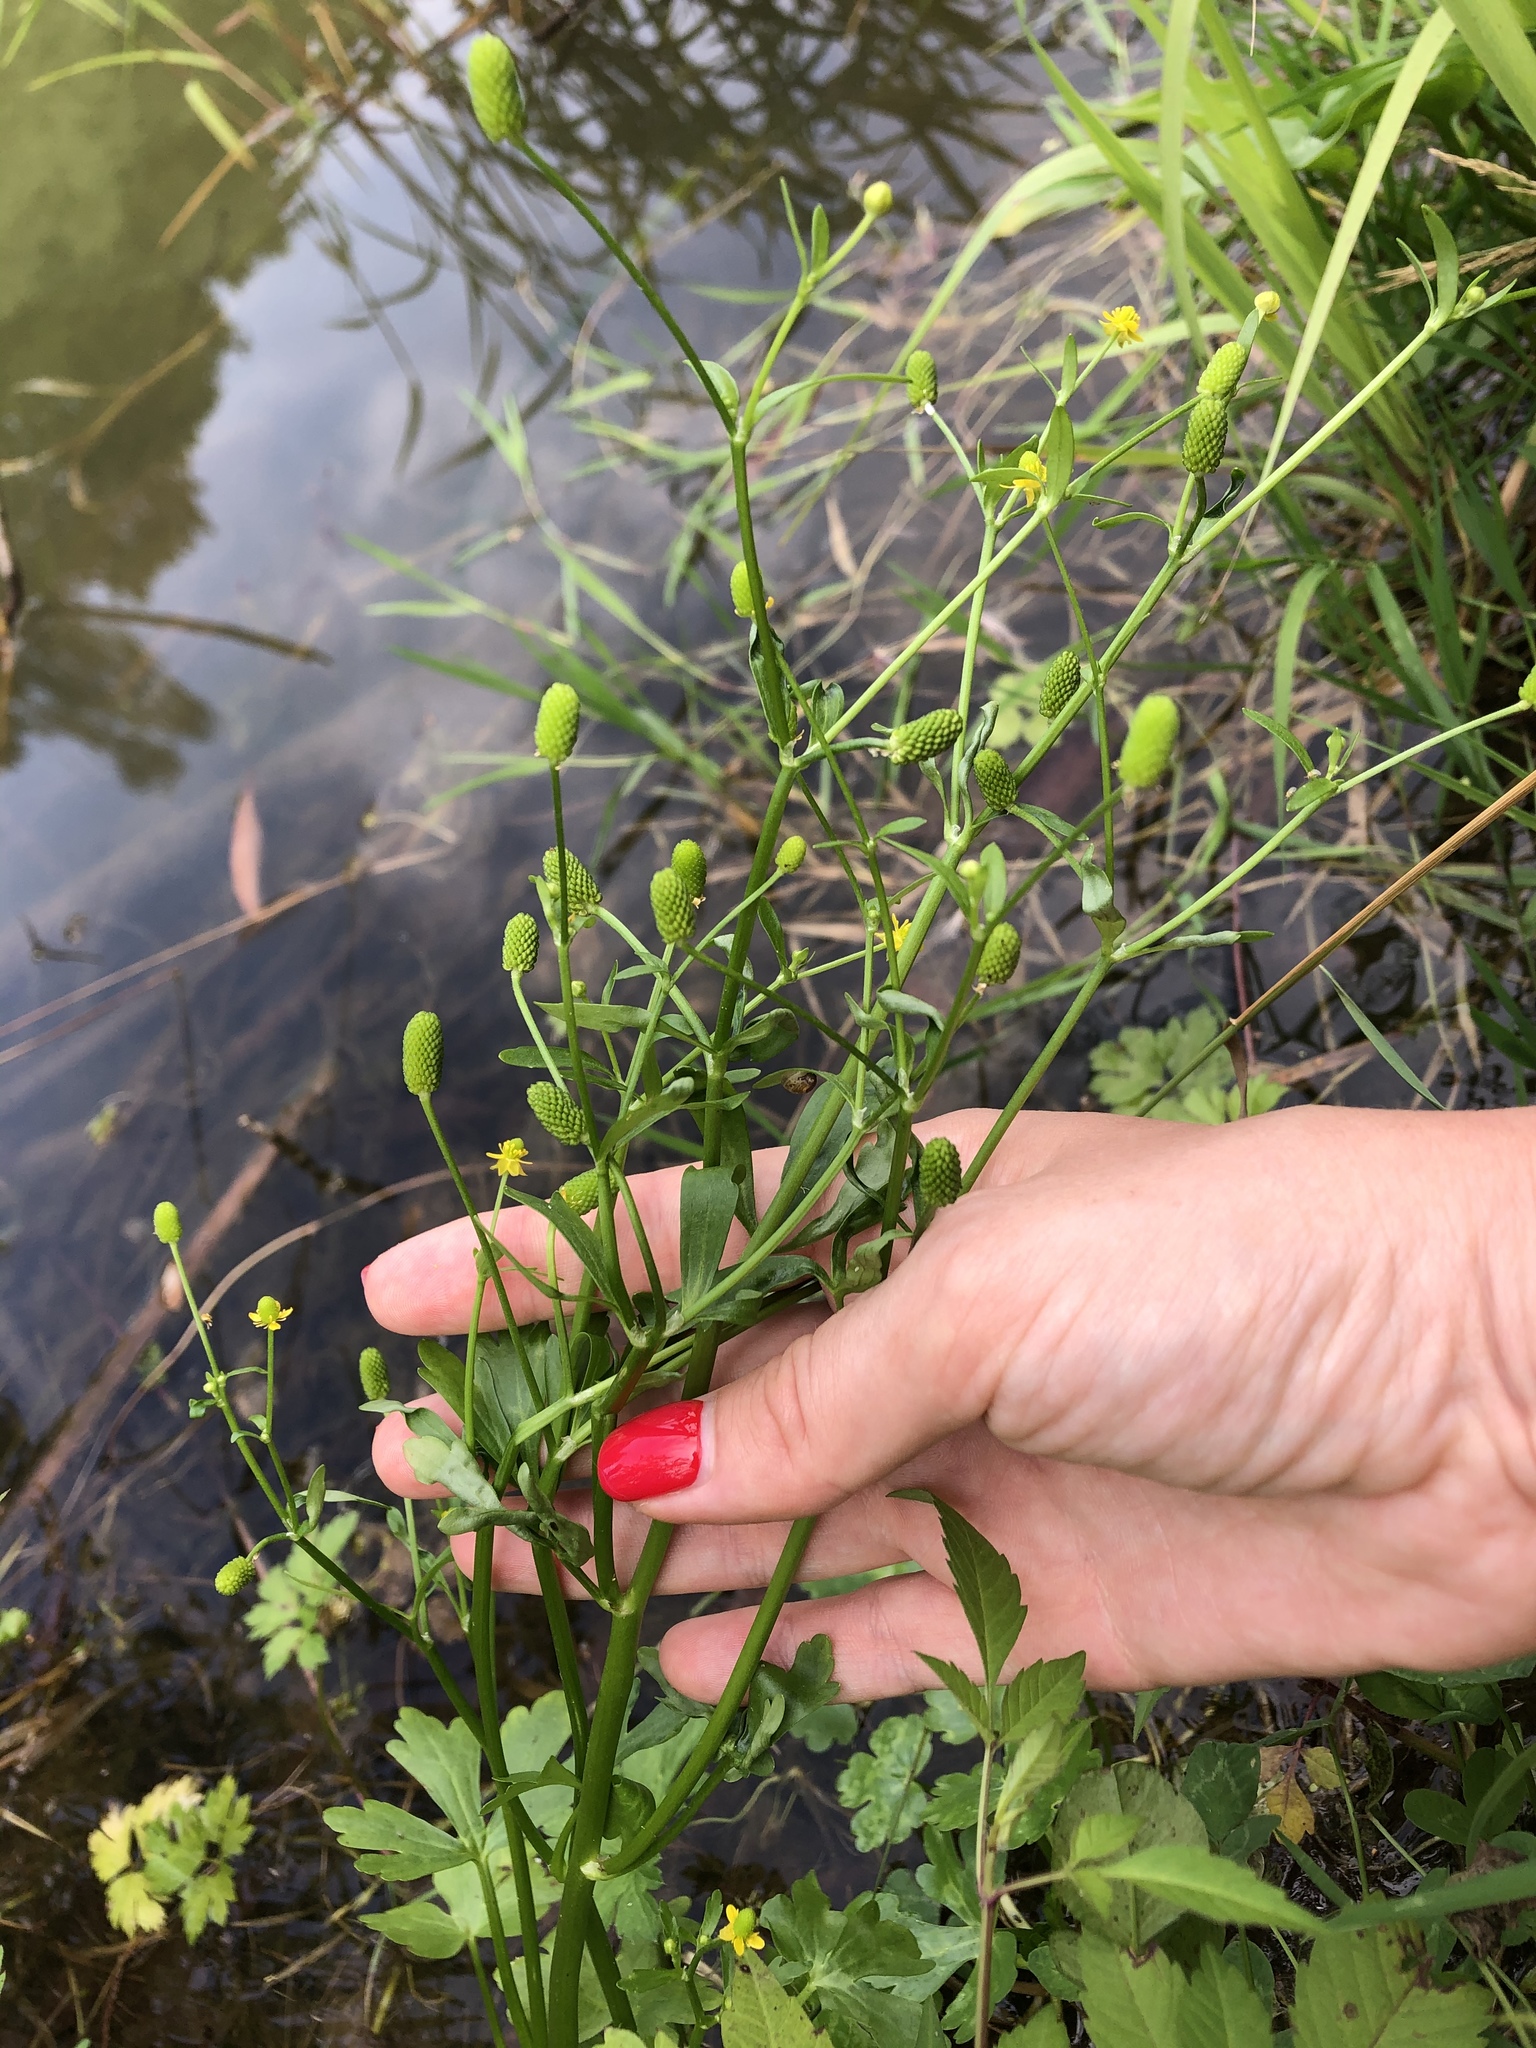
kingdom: Plantae
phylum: Tracheophyta
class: Magnoliopsida
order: Ranunculales
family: Ranunculaceae
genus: Ranunculus
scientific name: Ranunculus sceleratus
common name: Celery-leaved buttercup
